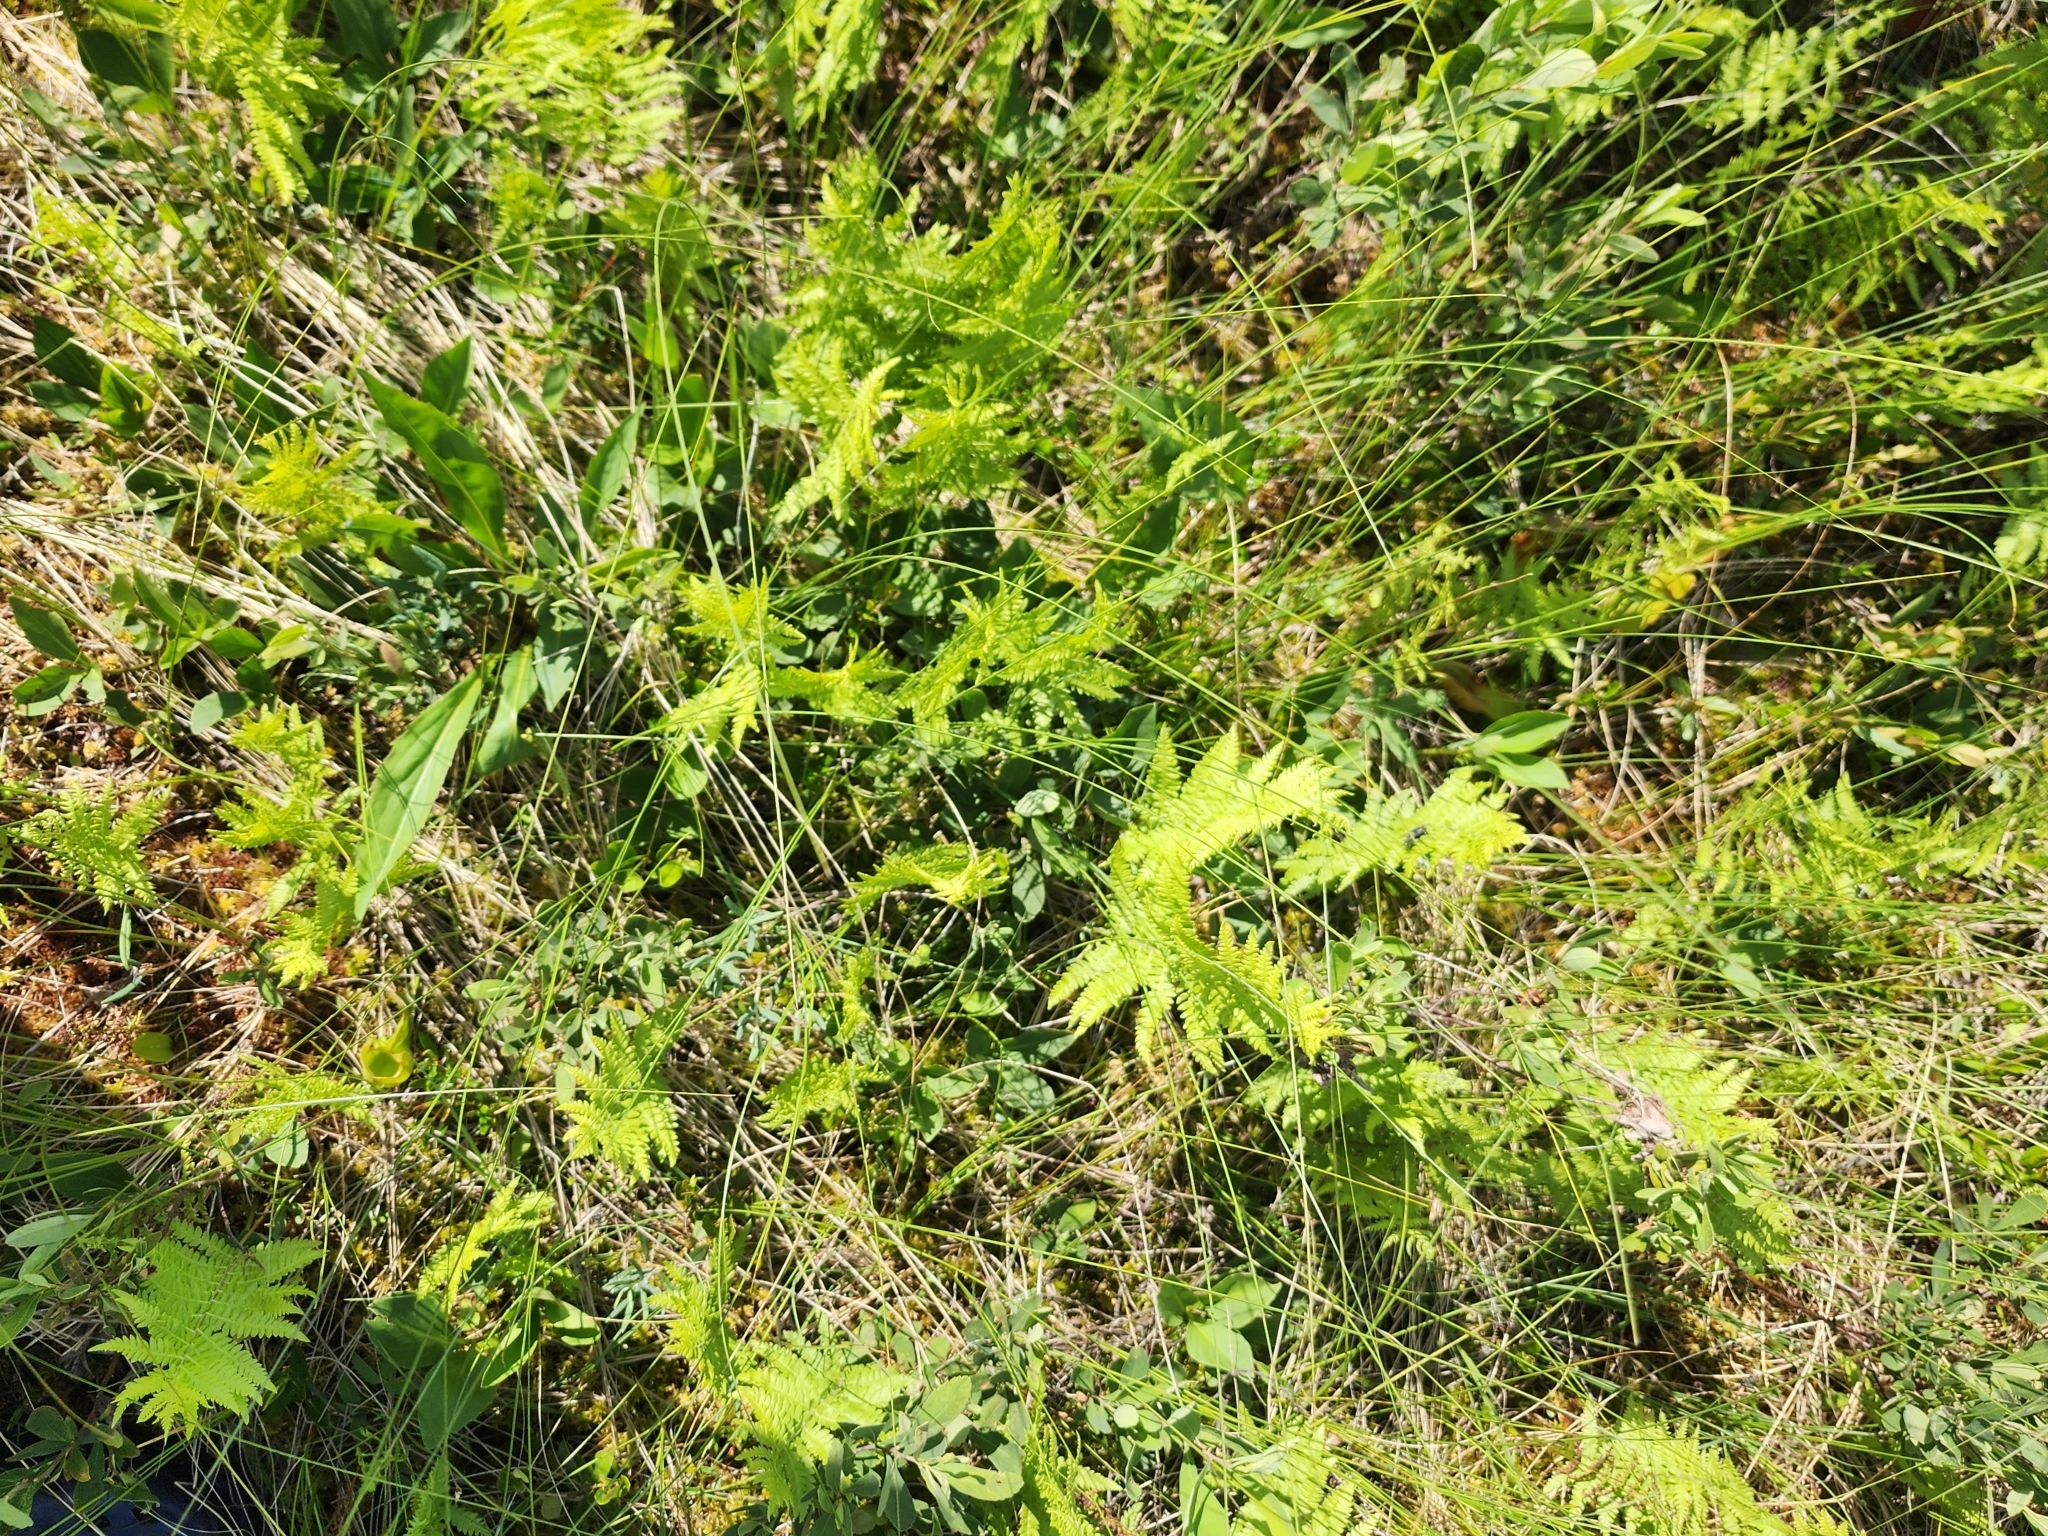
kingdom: Plantae
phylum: Tracheophyta
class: Polypodiopsida
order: Polypodiales
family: Thelypteridaceae
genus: Thelypteris
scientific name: Thelypteris palustris
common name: Marsh fern
